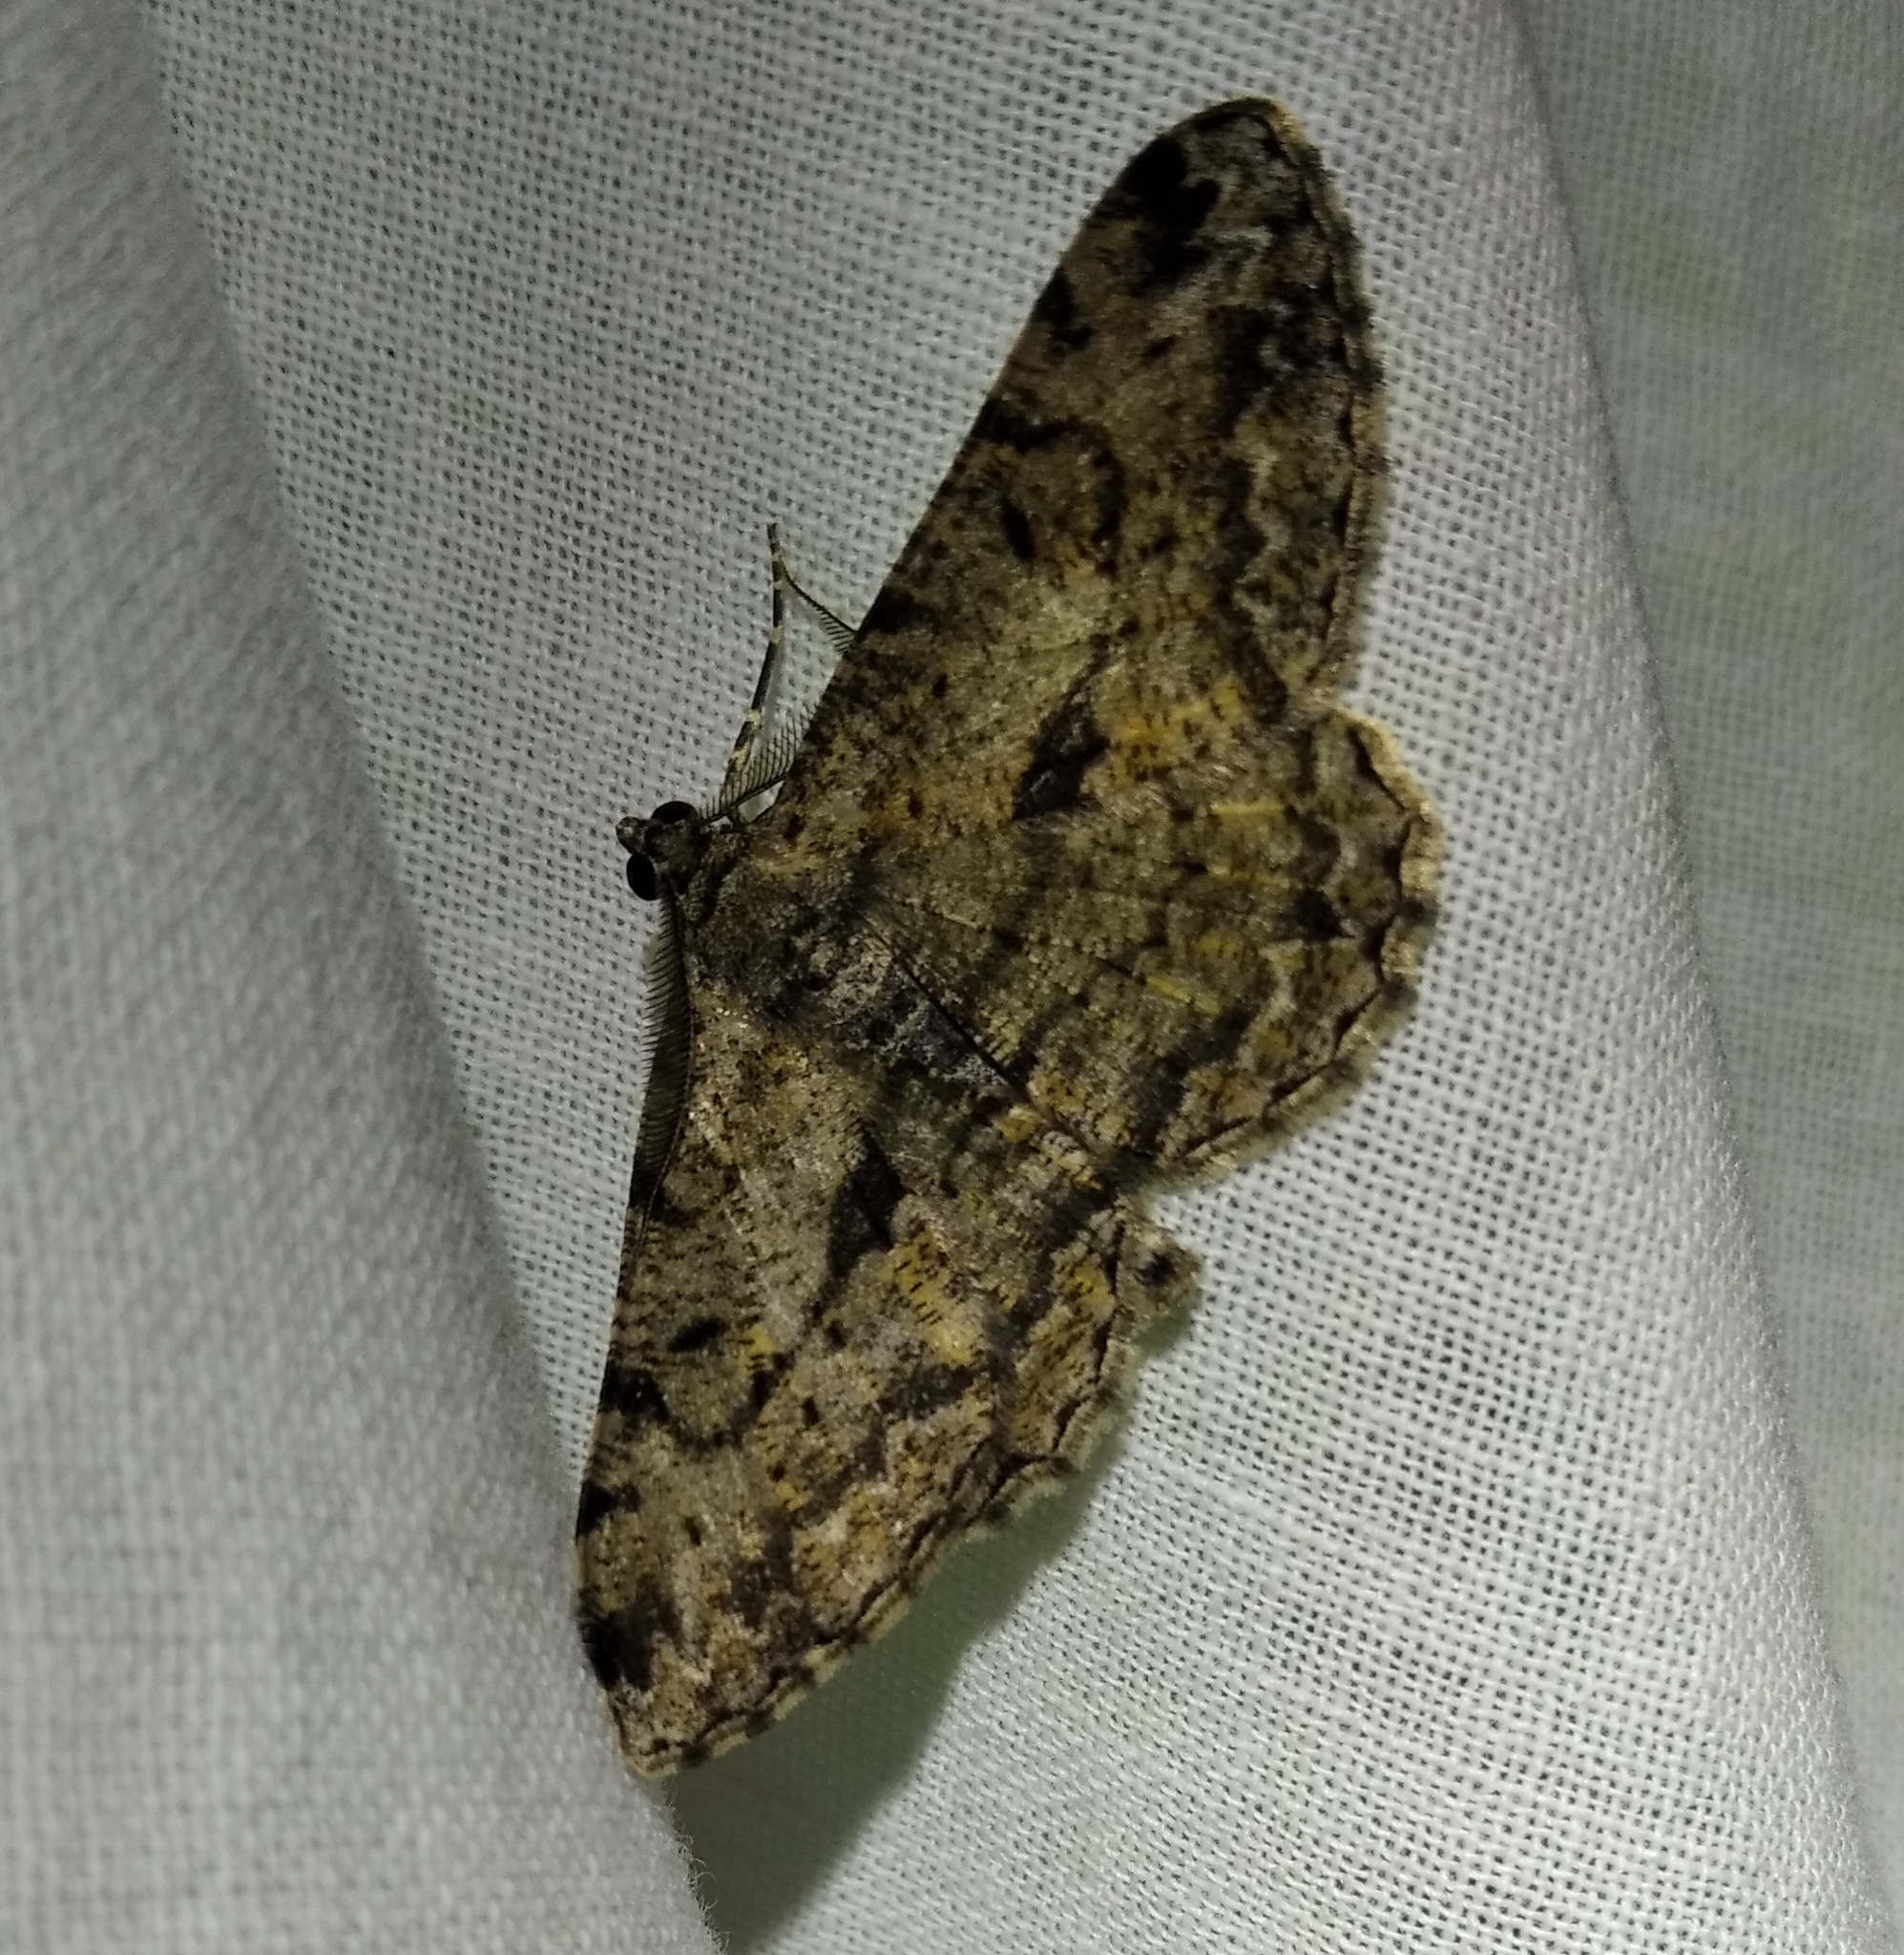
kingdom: Animalia
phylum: Arthropoda
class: Insecta
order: Lepidoptera
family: Geometridae
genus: Peribatodes
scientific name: Peribatodes rhomboidaria
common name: Willow beauty
